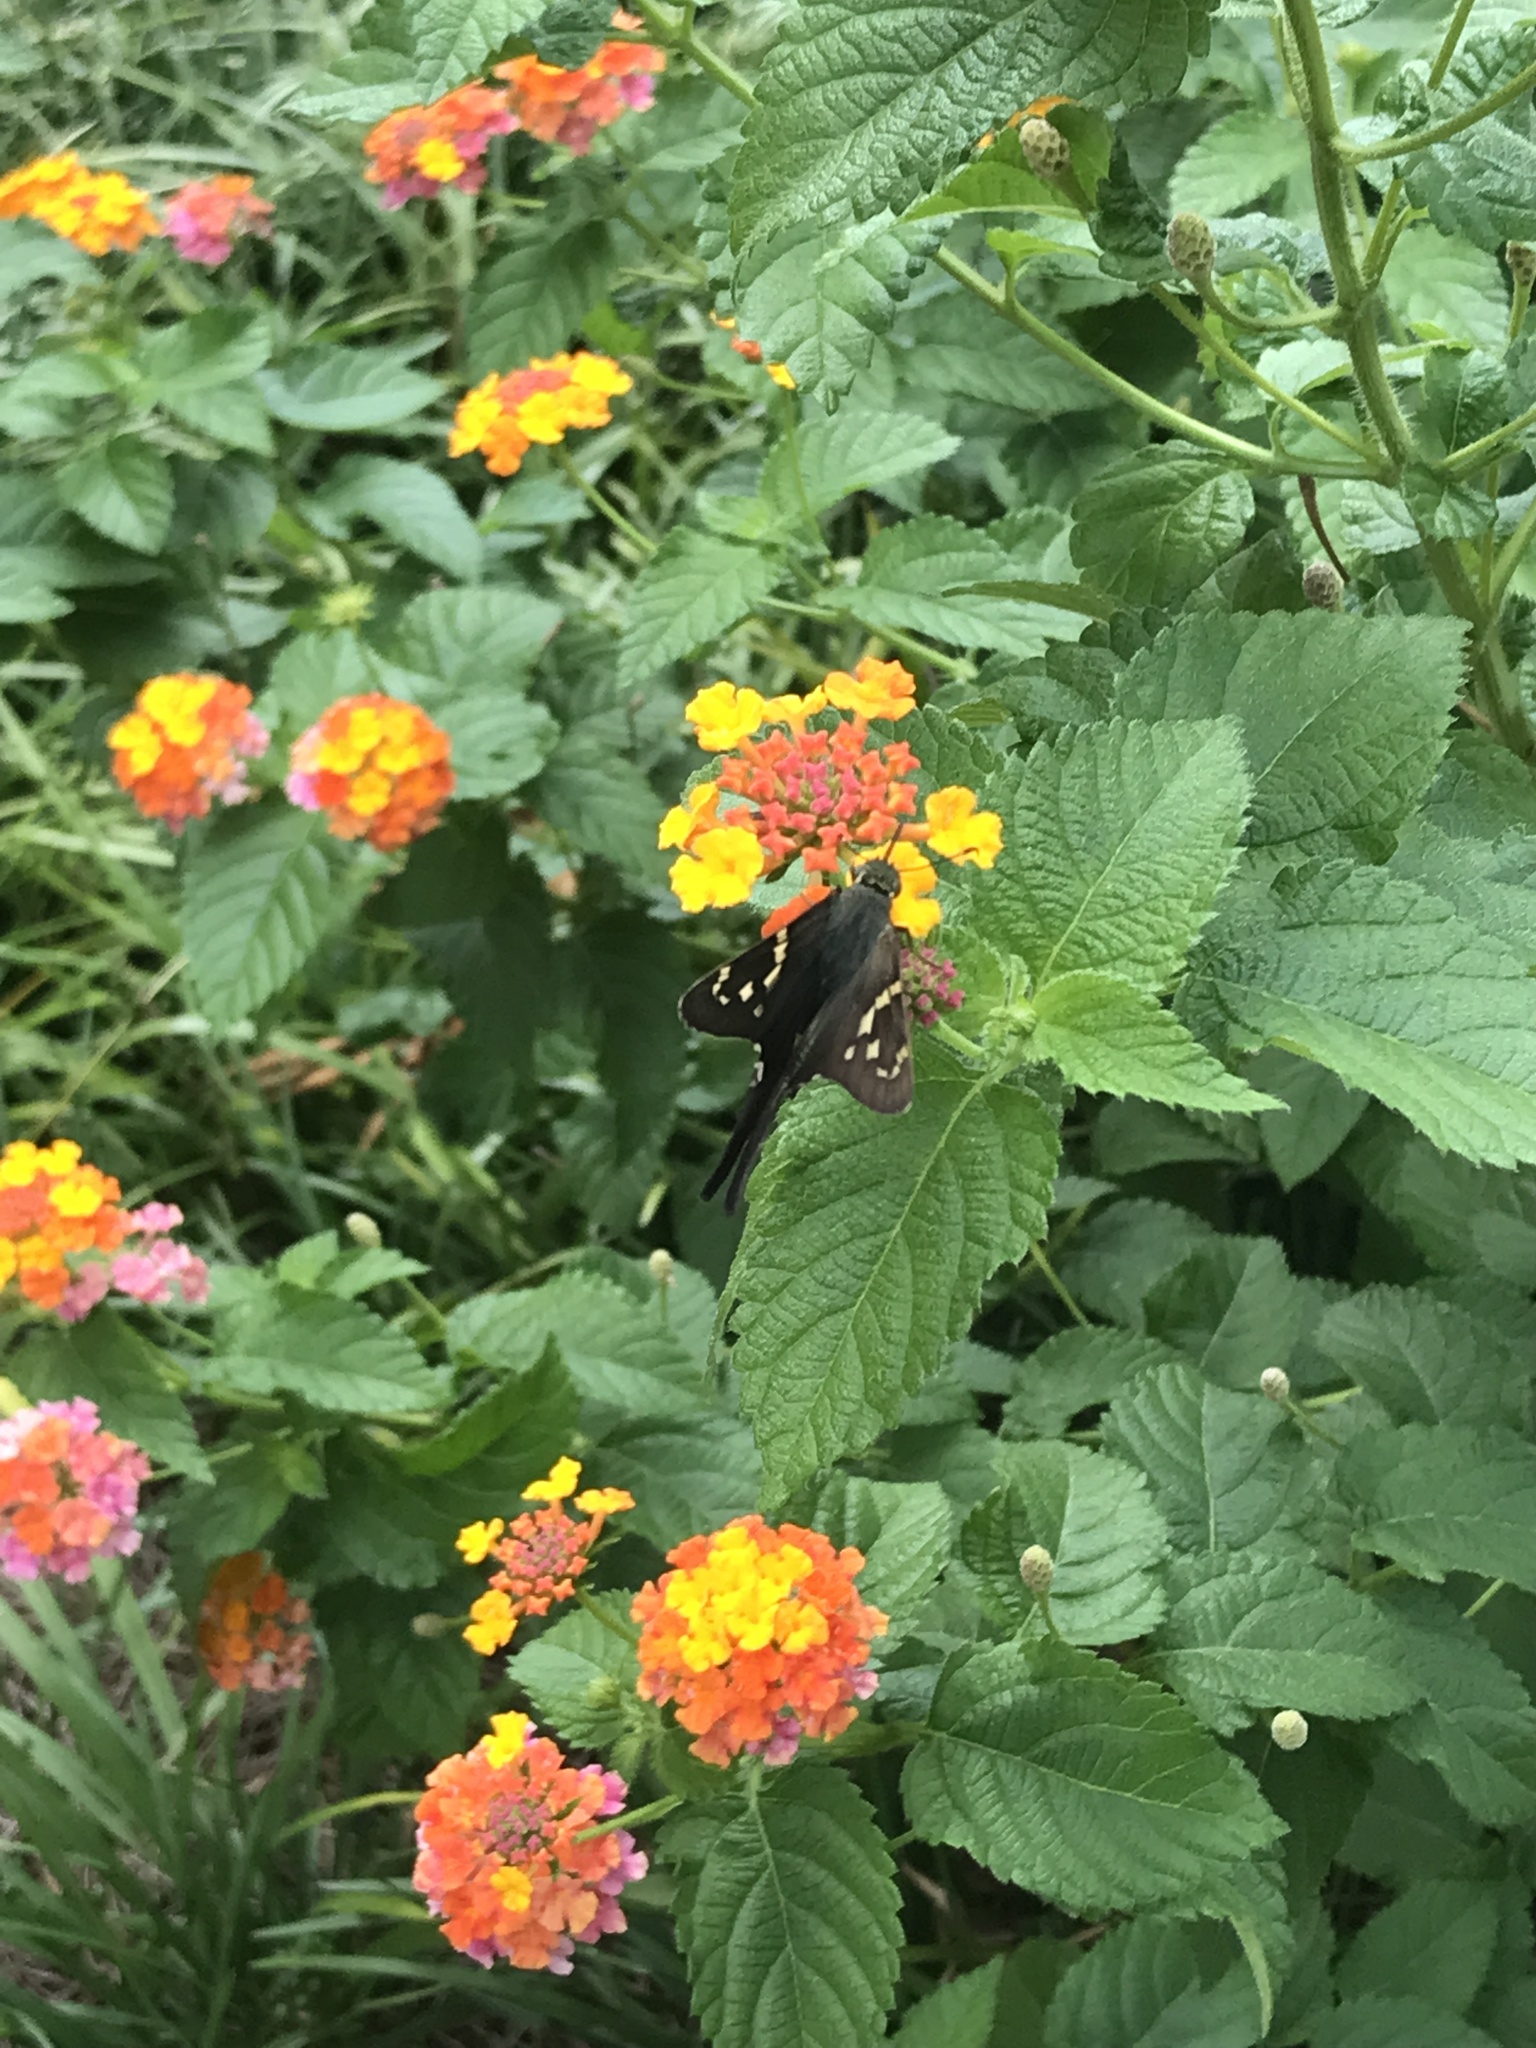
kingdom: Animalia
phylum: Arthropoda
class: Insecta
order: Lepidoptera
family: Hesperiidae
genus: Urbanus
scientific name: Urbanus proteus
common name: Long-tailed skipper
